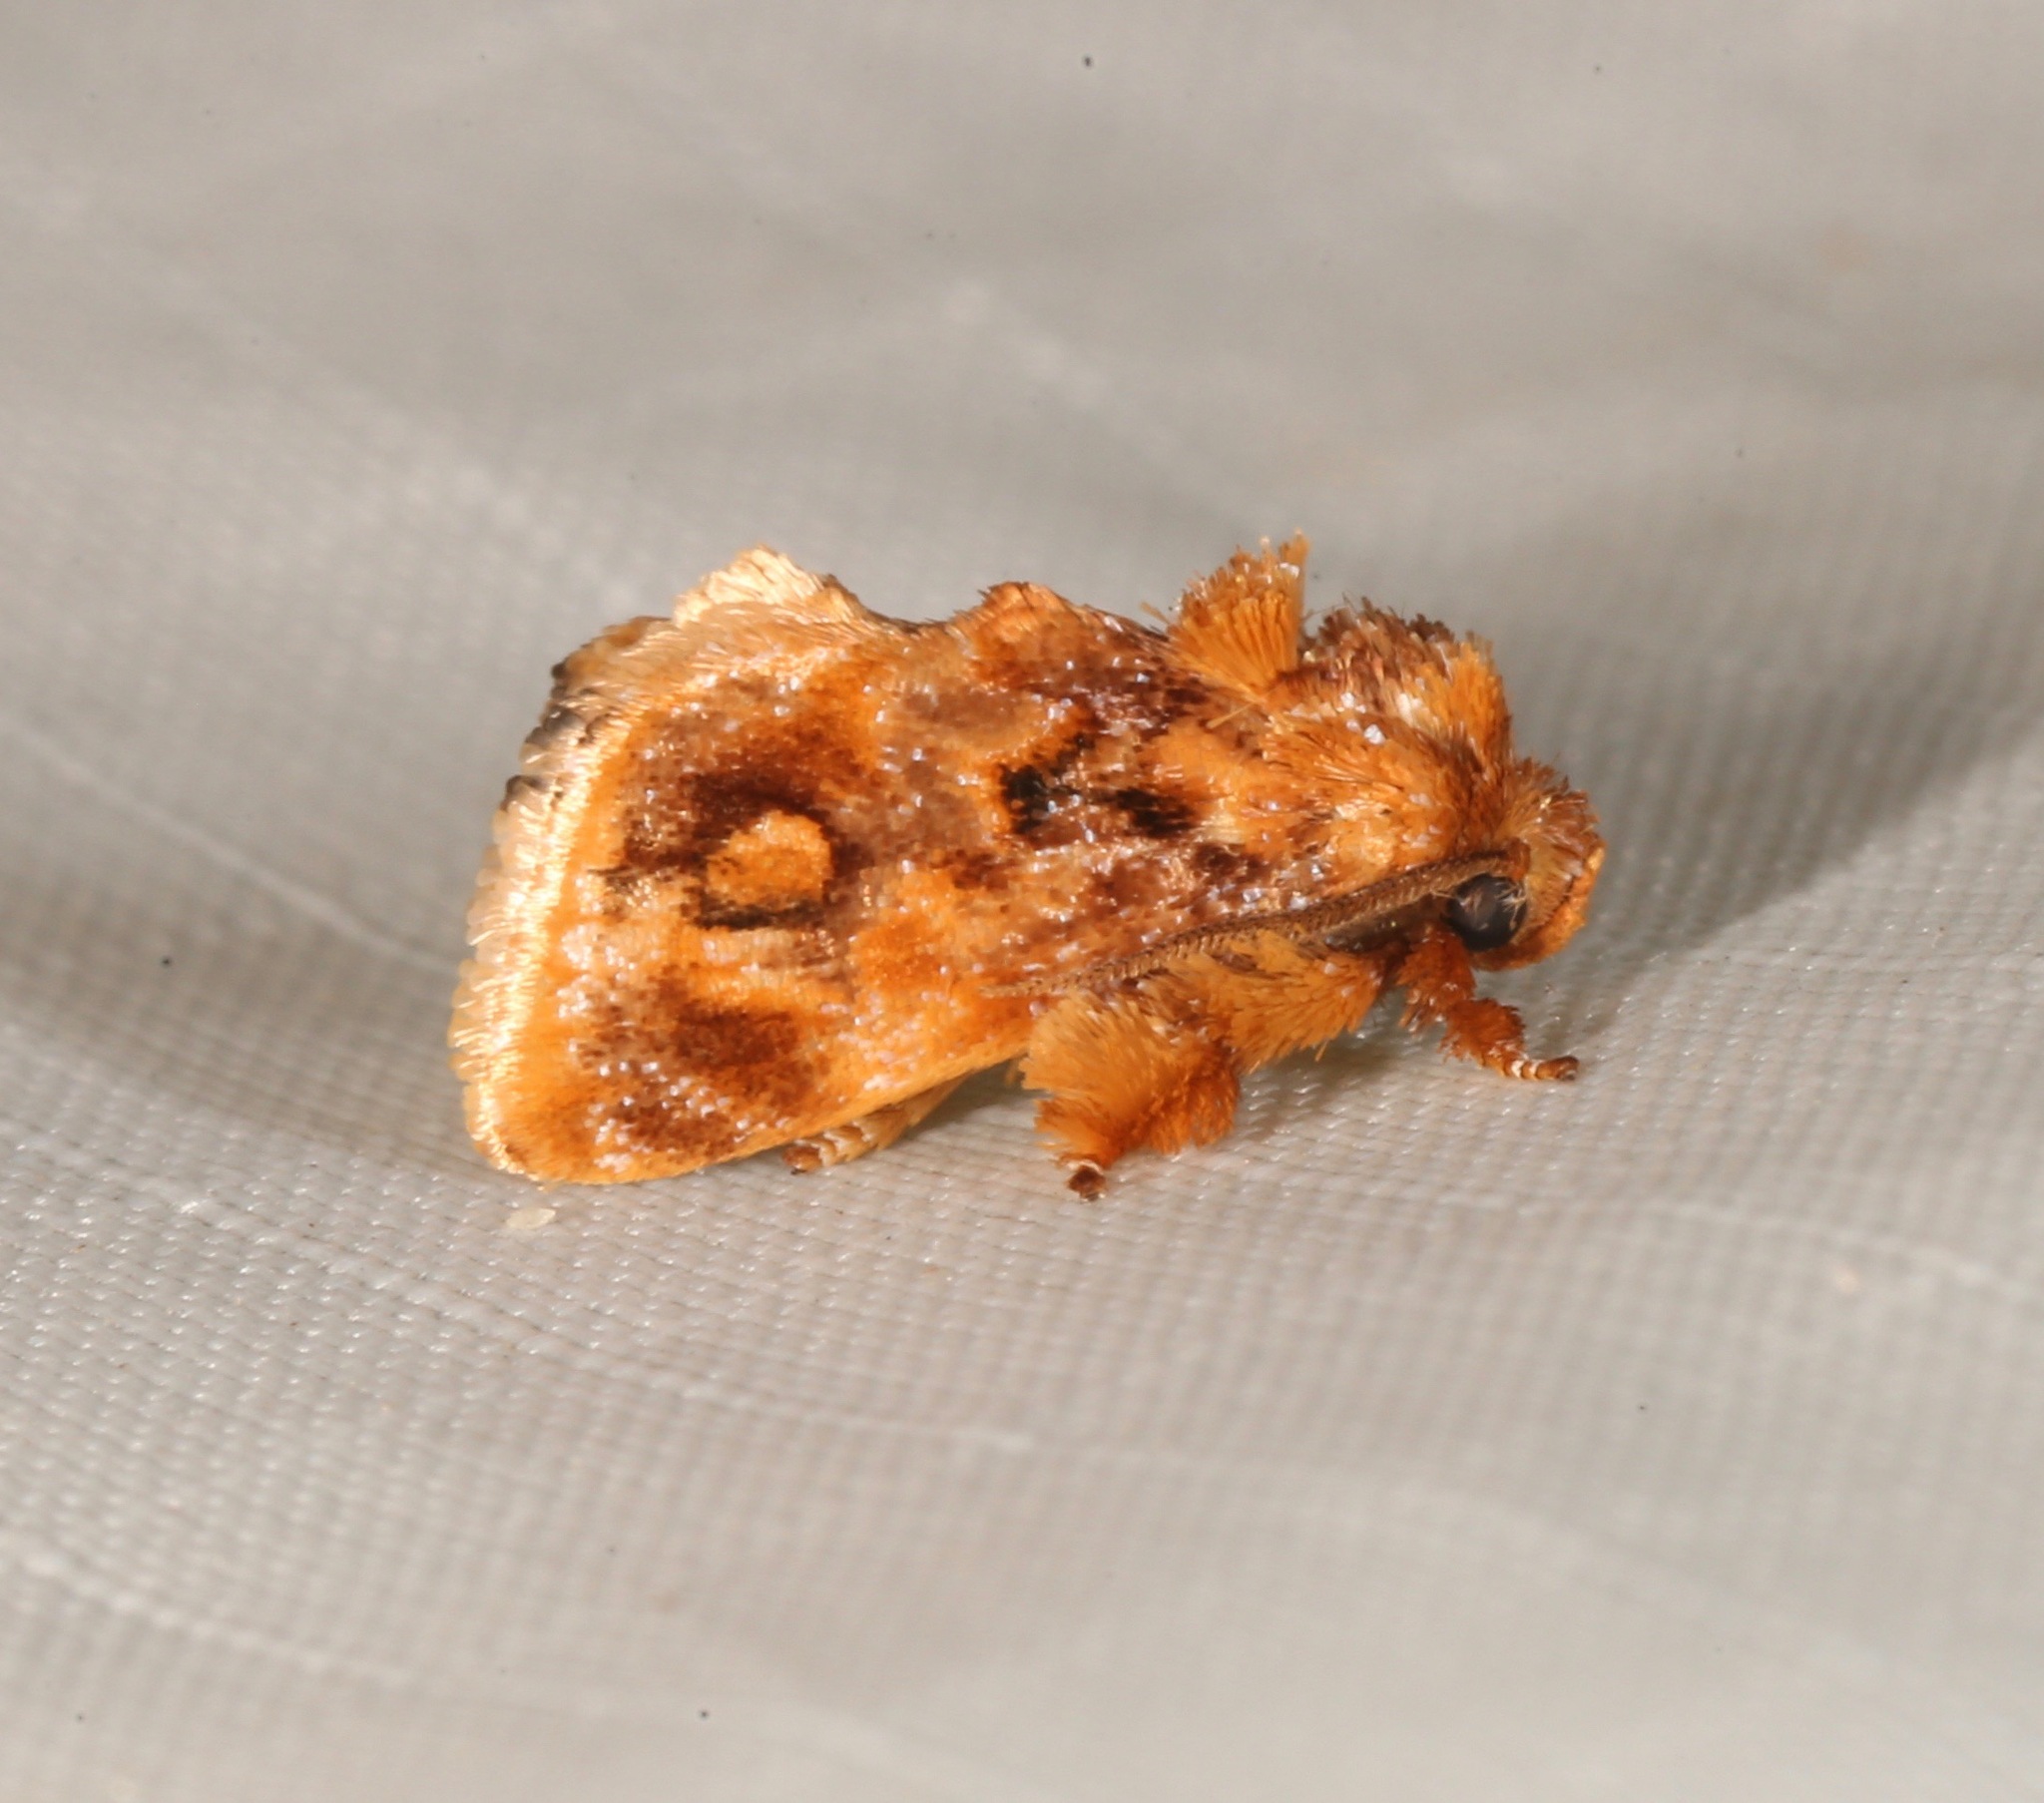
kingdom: Animalia
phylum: Arthropoda
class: Insecta
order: Lepidoptera
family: Limacodidae
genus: Isochaetes
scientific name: Isochaetes beutenmuelleri
